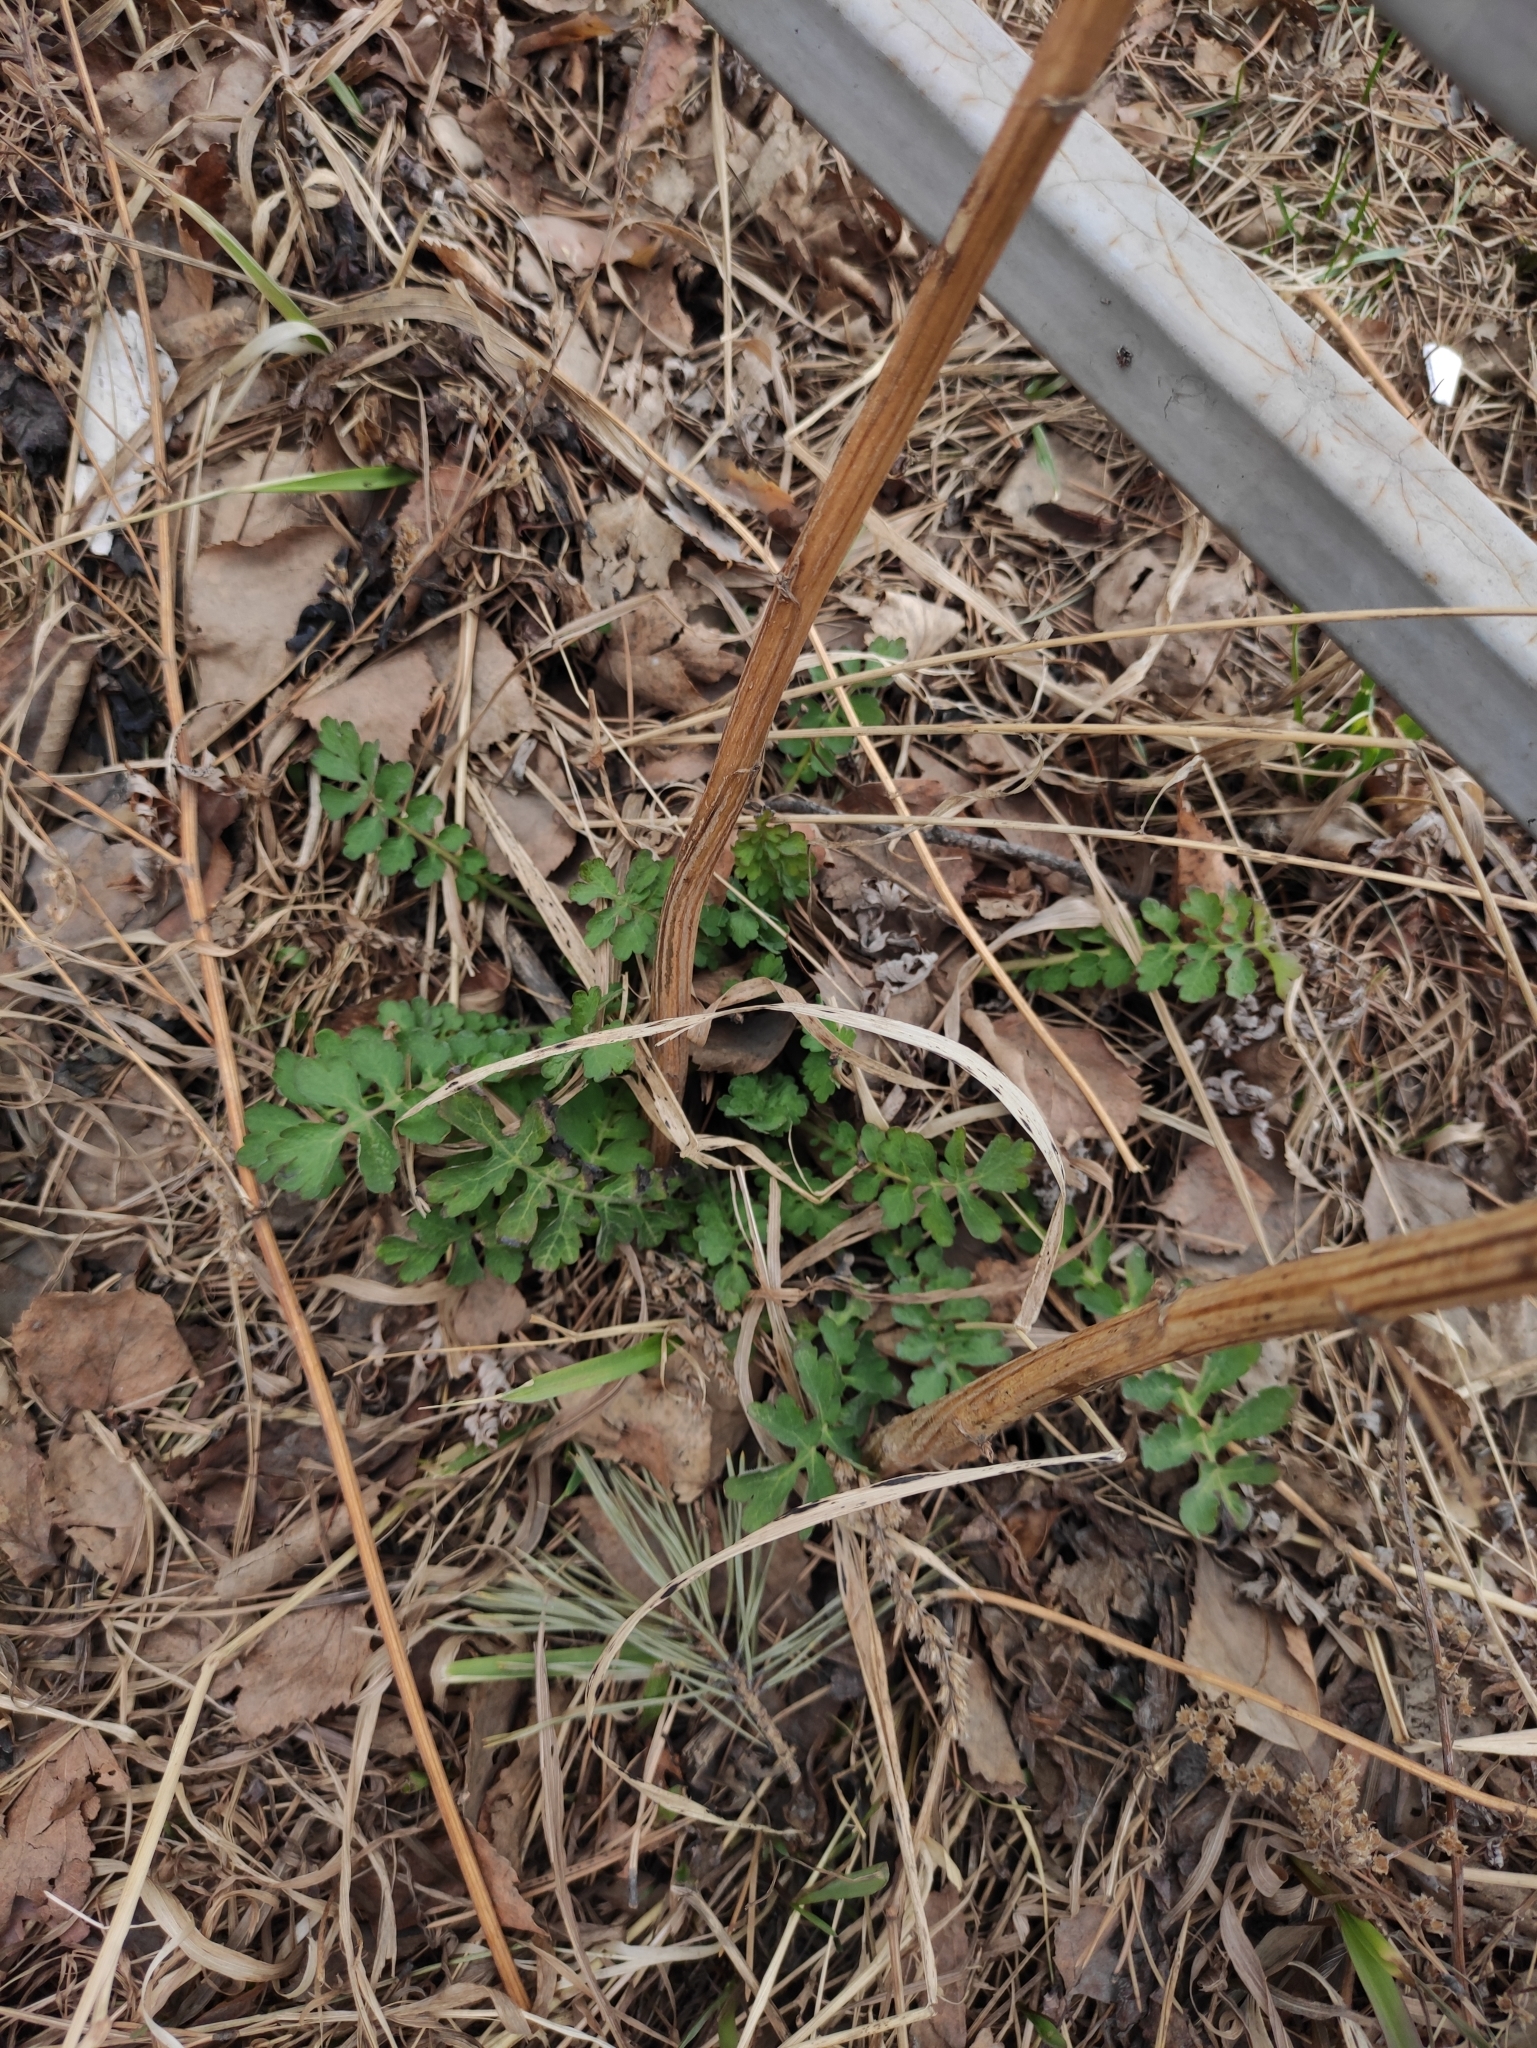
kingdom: Plantae
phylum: Tracheophyta
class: Magnoliopsida
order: Ranunculales
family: Papaveraceae
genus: Chelidonium
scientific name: Chelidonium majus
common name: Greater celandine
